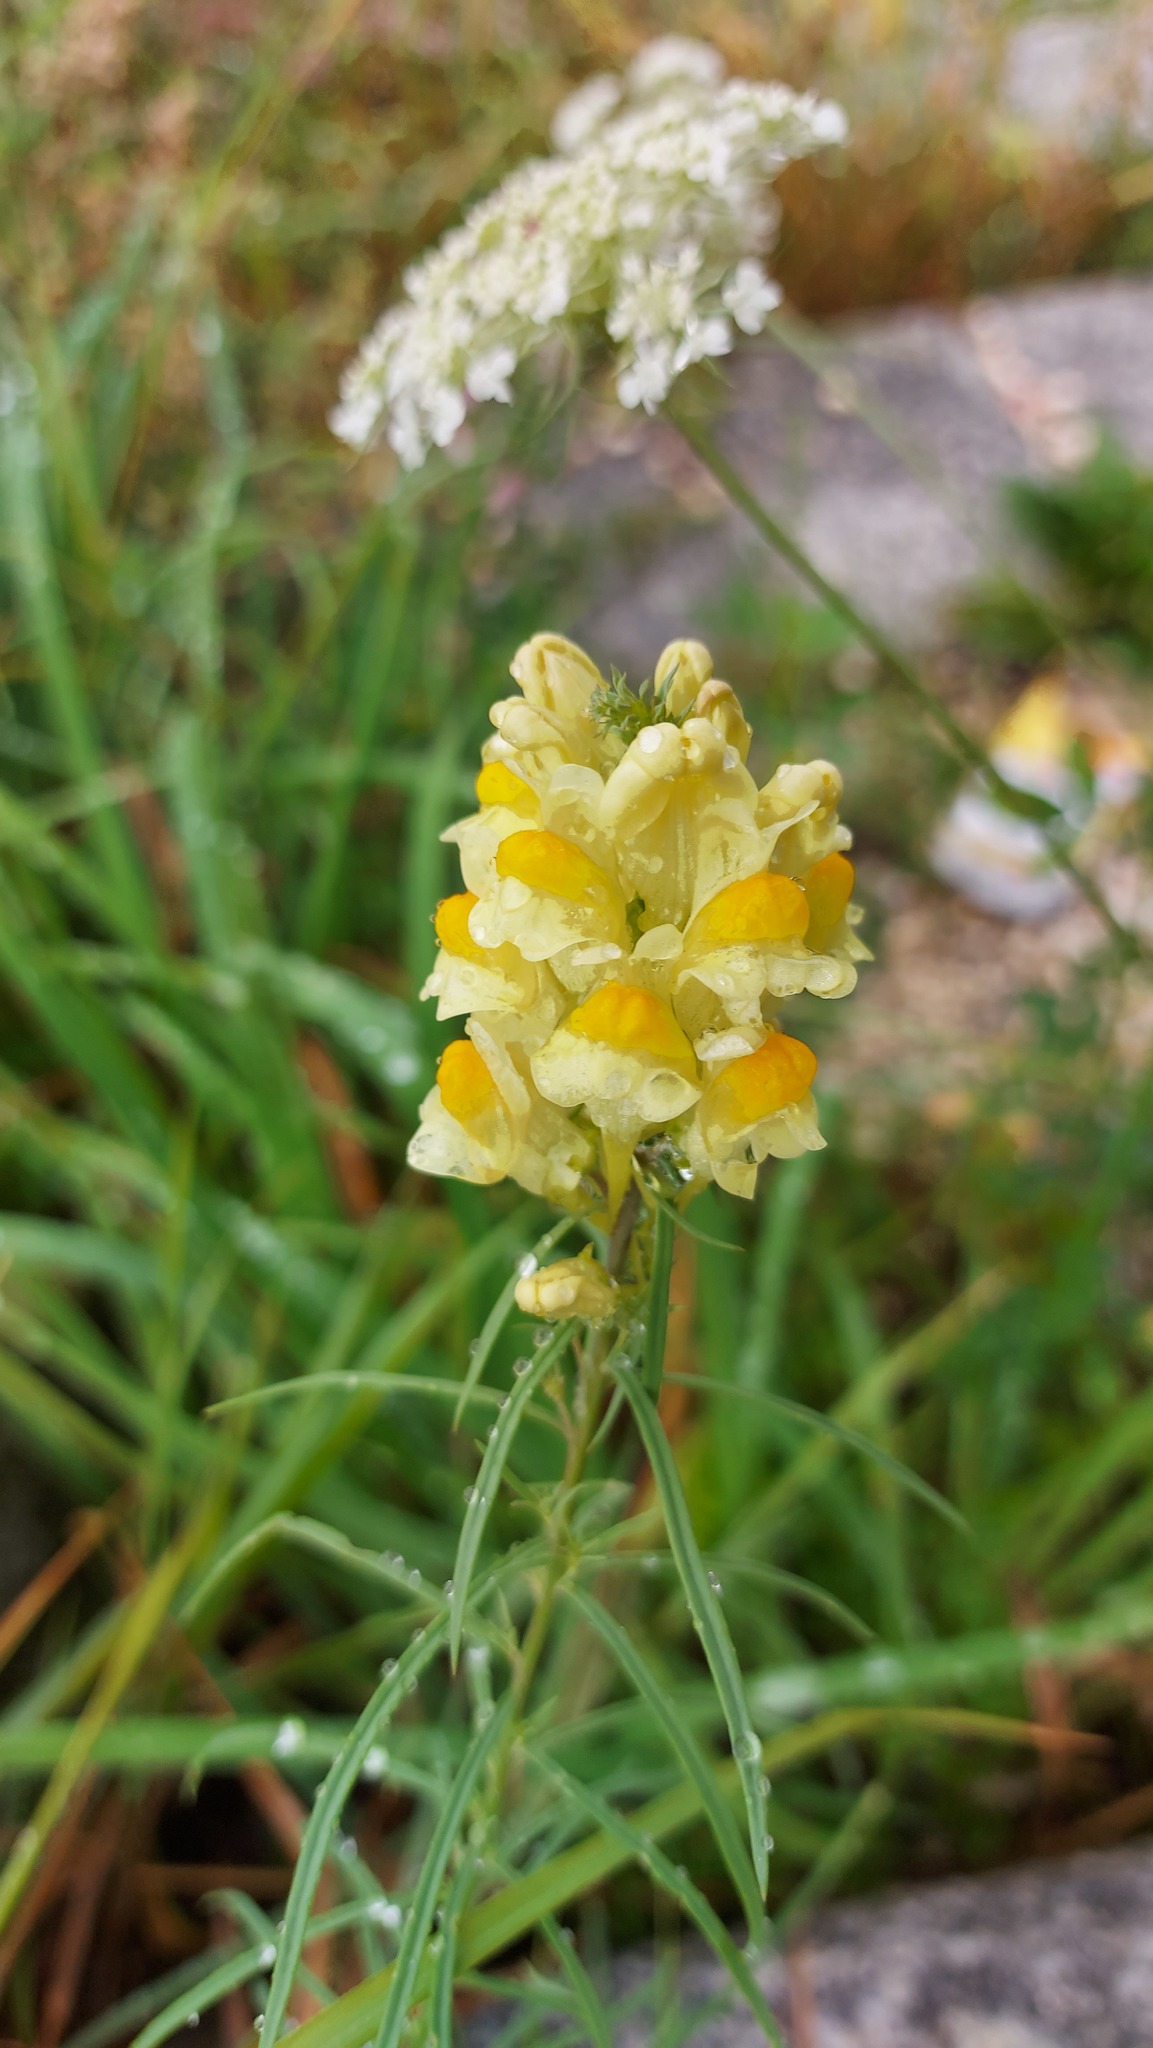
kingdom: Plantae
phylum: Tracheophyta
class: Magnoliopsida
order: Lamiales
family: Plantaginaceae
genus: Linaria
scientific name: Linaria vulgaris
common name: Butter and eggs
